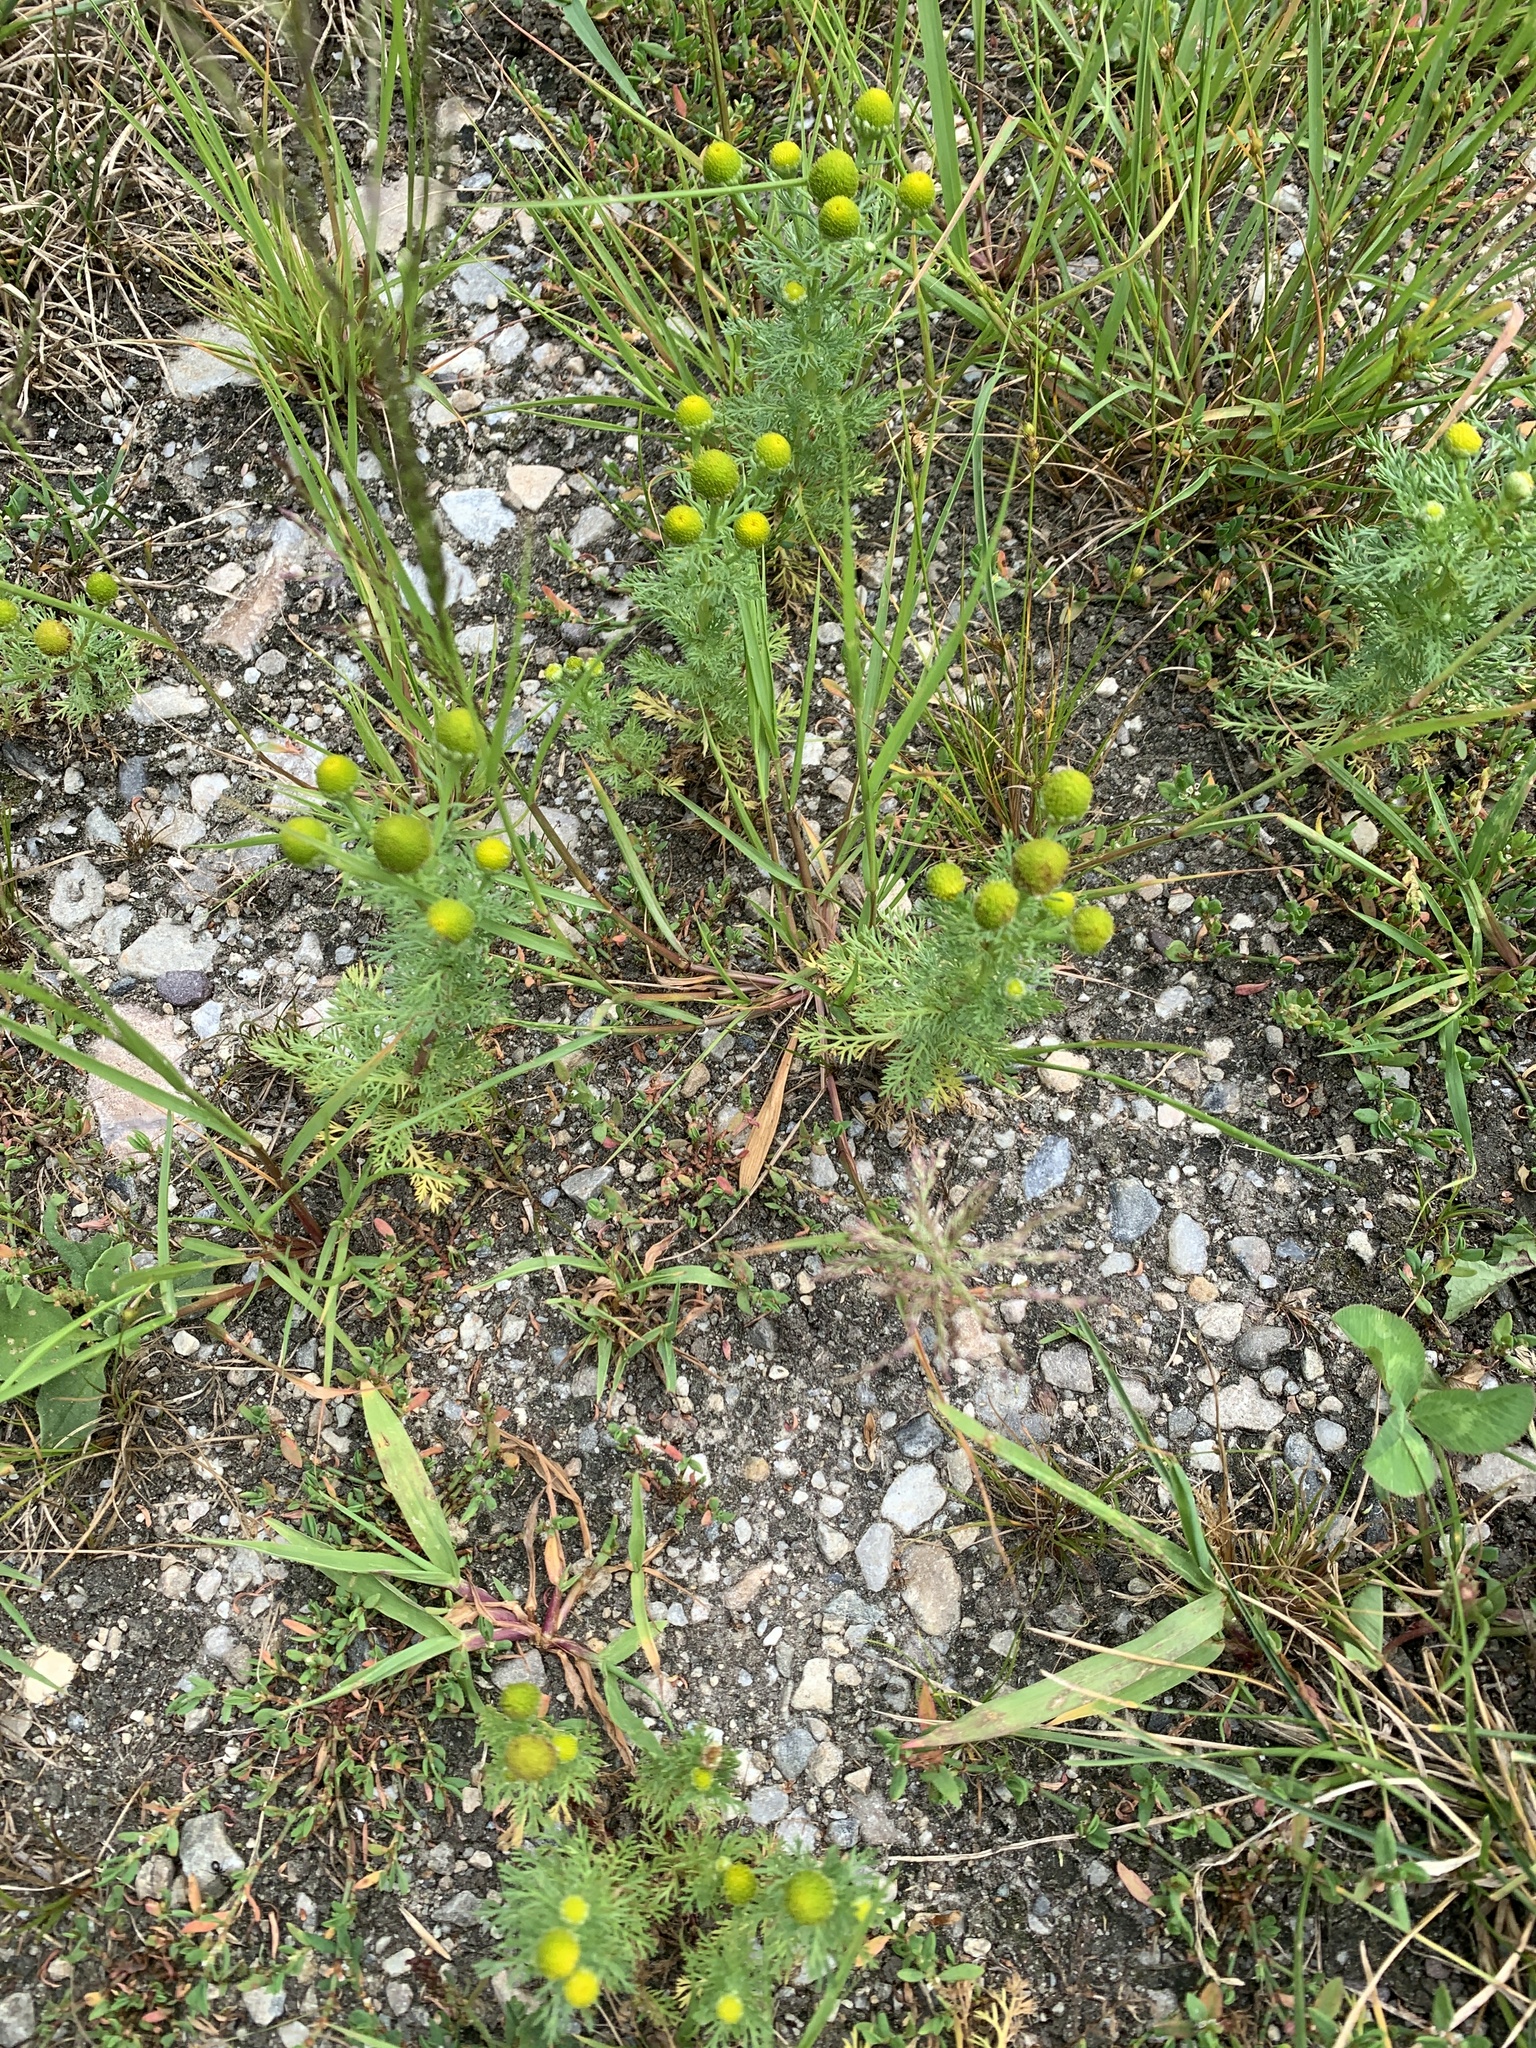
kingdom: Plantae
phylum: Tracheophyta
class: Magnoliopsida
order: Asterales
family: Asteraceae
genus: Matricaria
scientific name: Matricaria discoidea
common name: Disc mayweed
